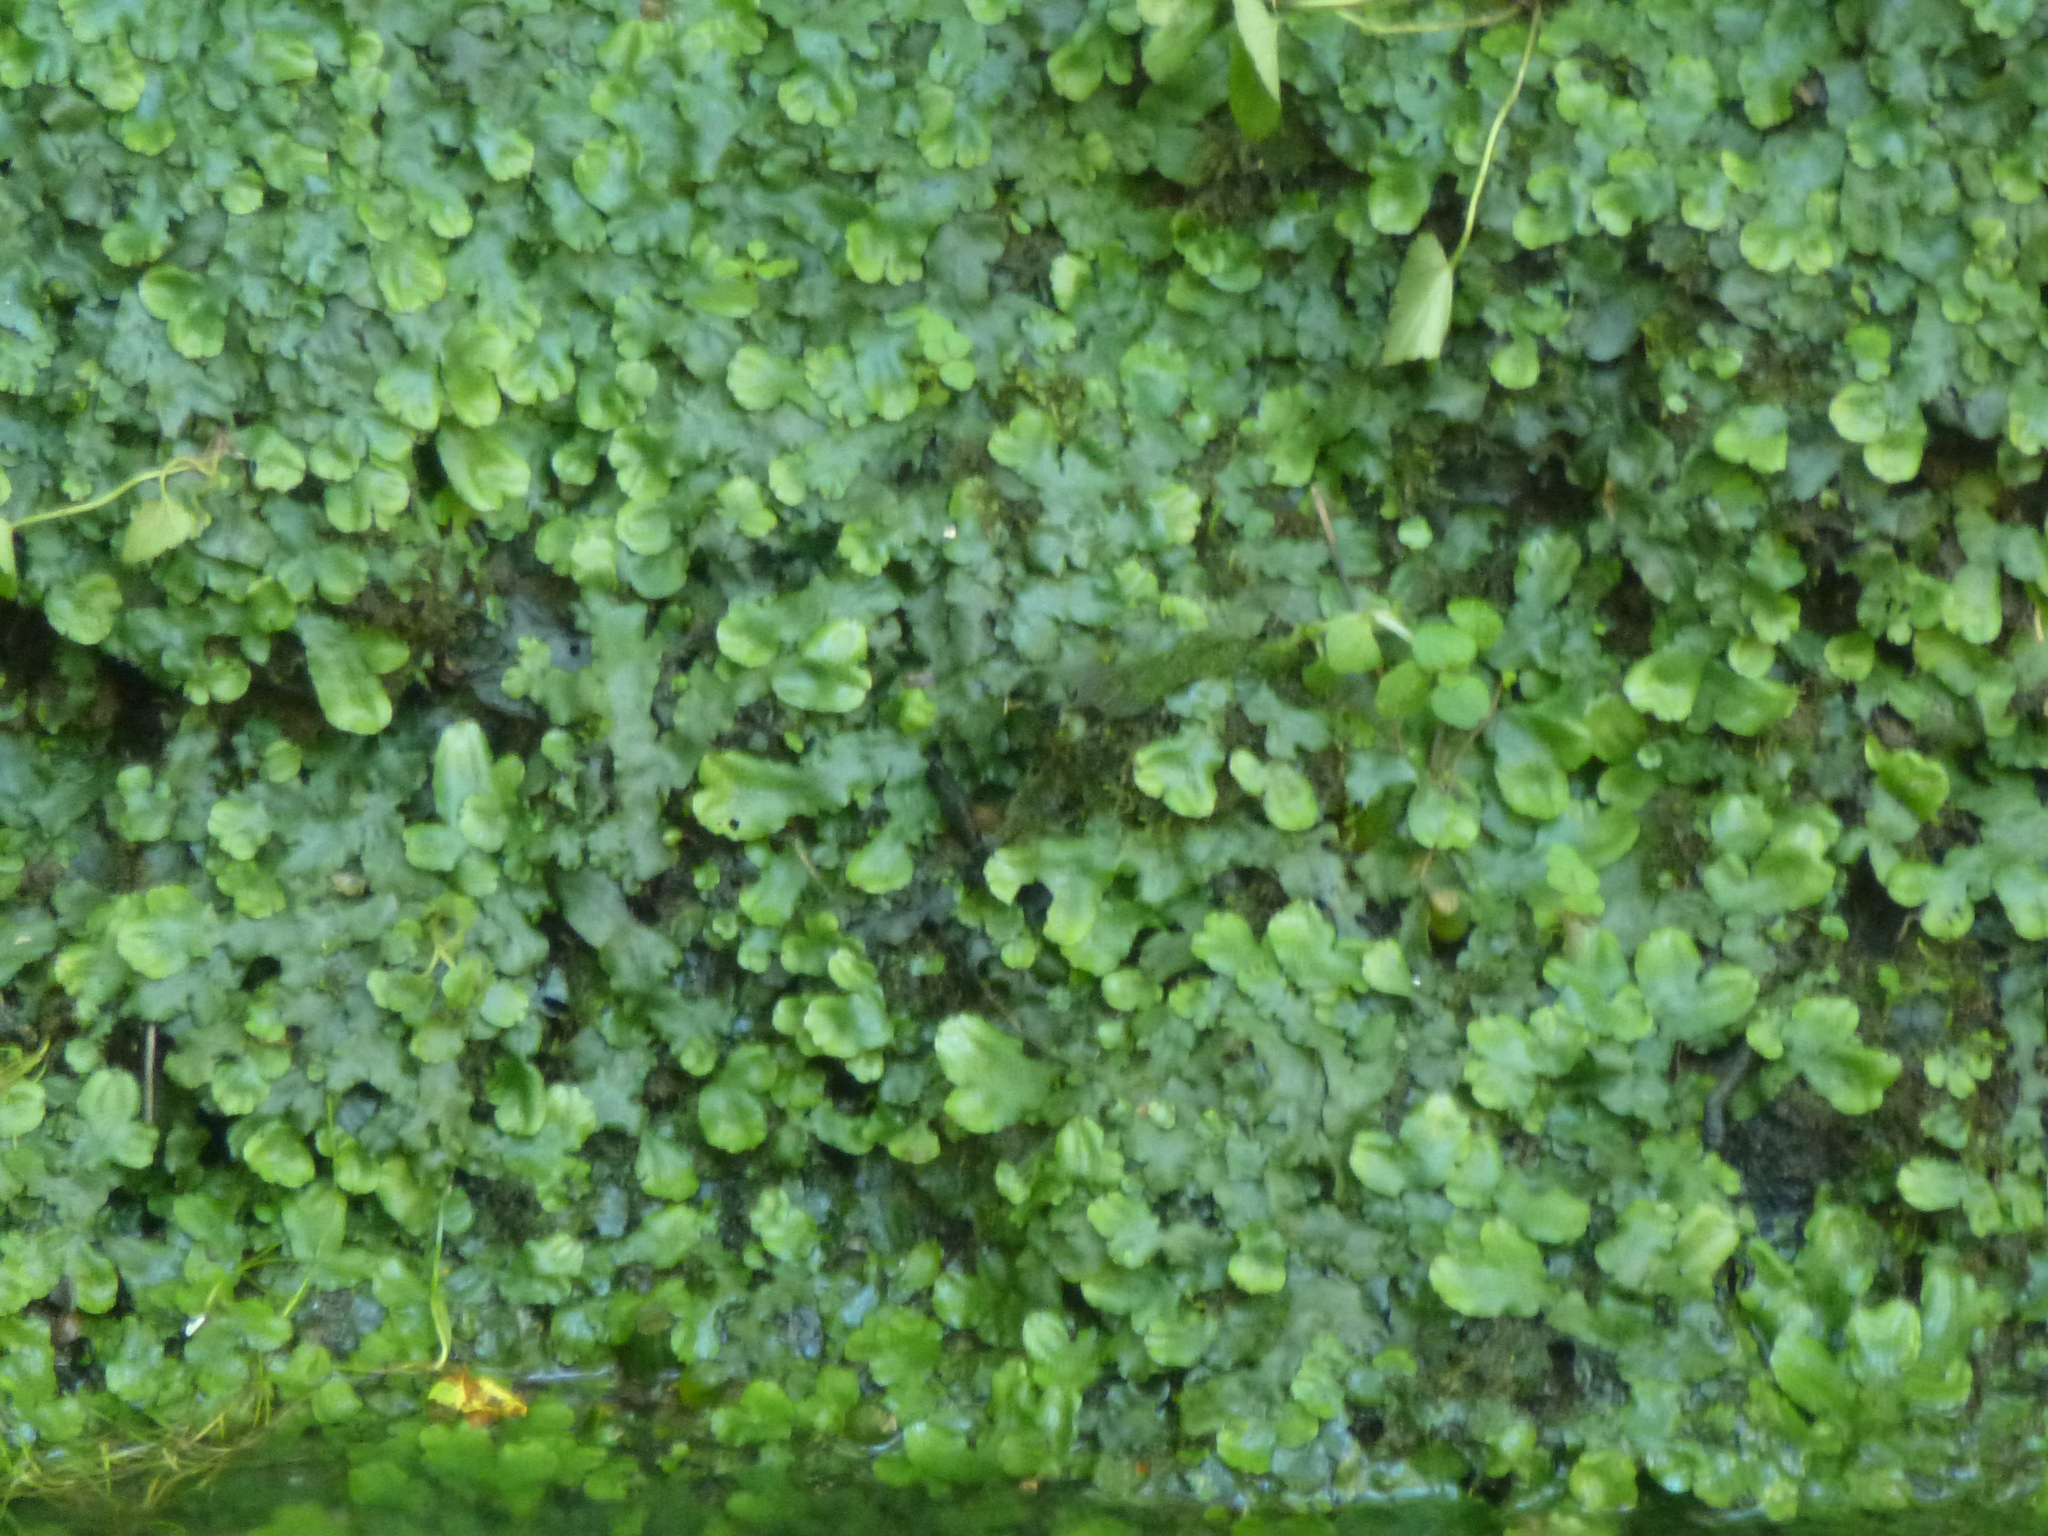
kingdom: Plantae
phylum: Marchantiophyta
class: Marchantiopsida
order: Marchantiales
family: Conocephalaceae
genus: Conocephalum
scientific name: Conocephalum conicum
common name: Great scented liverwort
